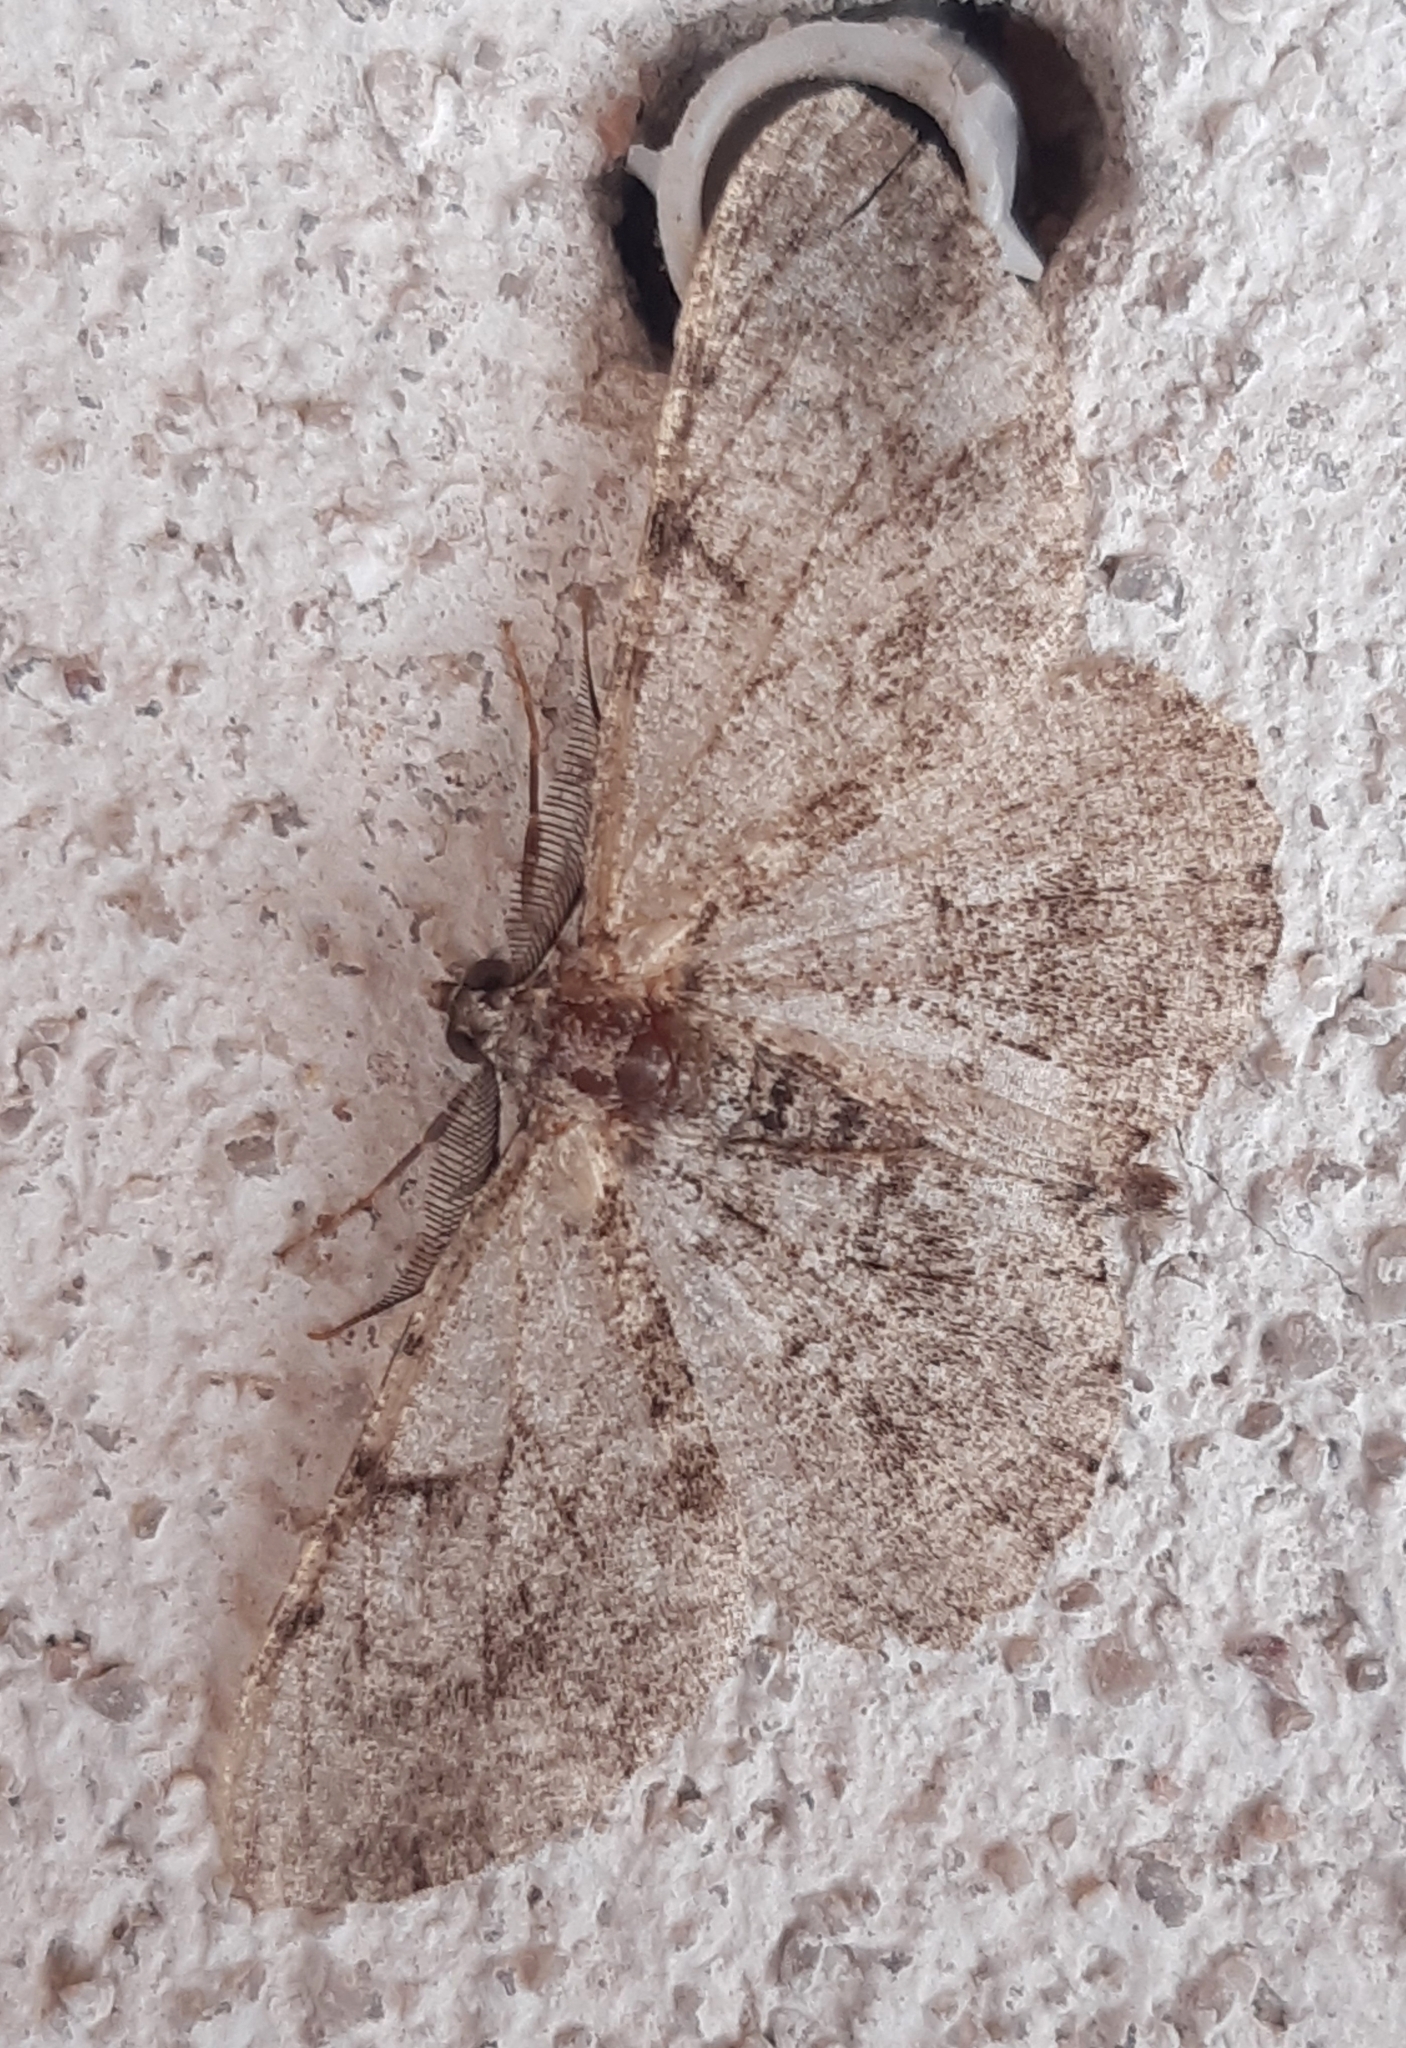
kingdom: Animalia
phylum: Arthropoda
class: Insecta
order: Lepidoptera
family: Geometridae
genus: Peribatodes
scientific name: Peribatodes rhomboidaria
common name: Willow beauty
